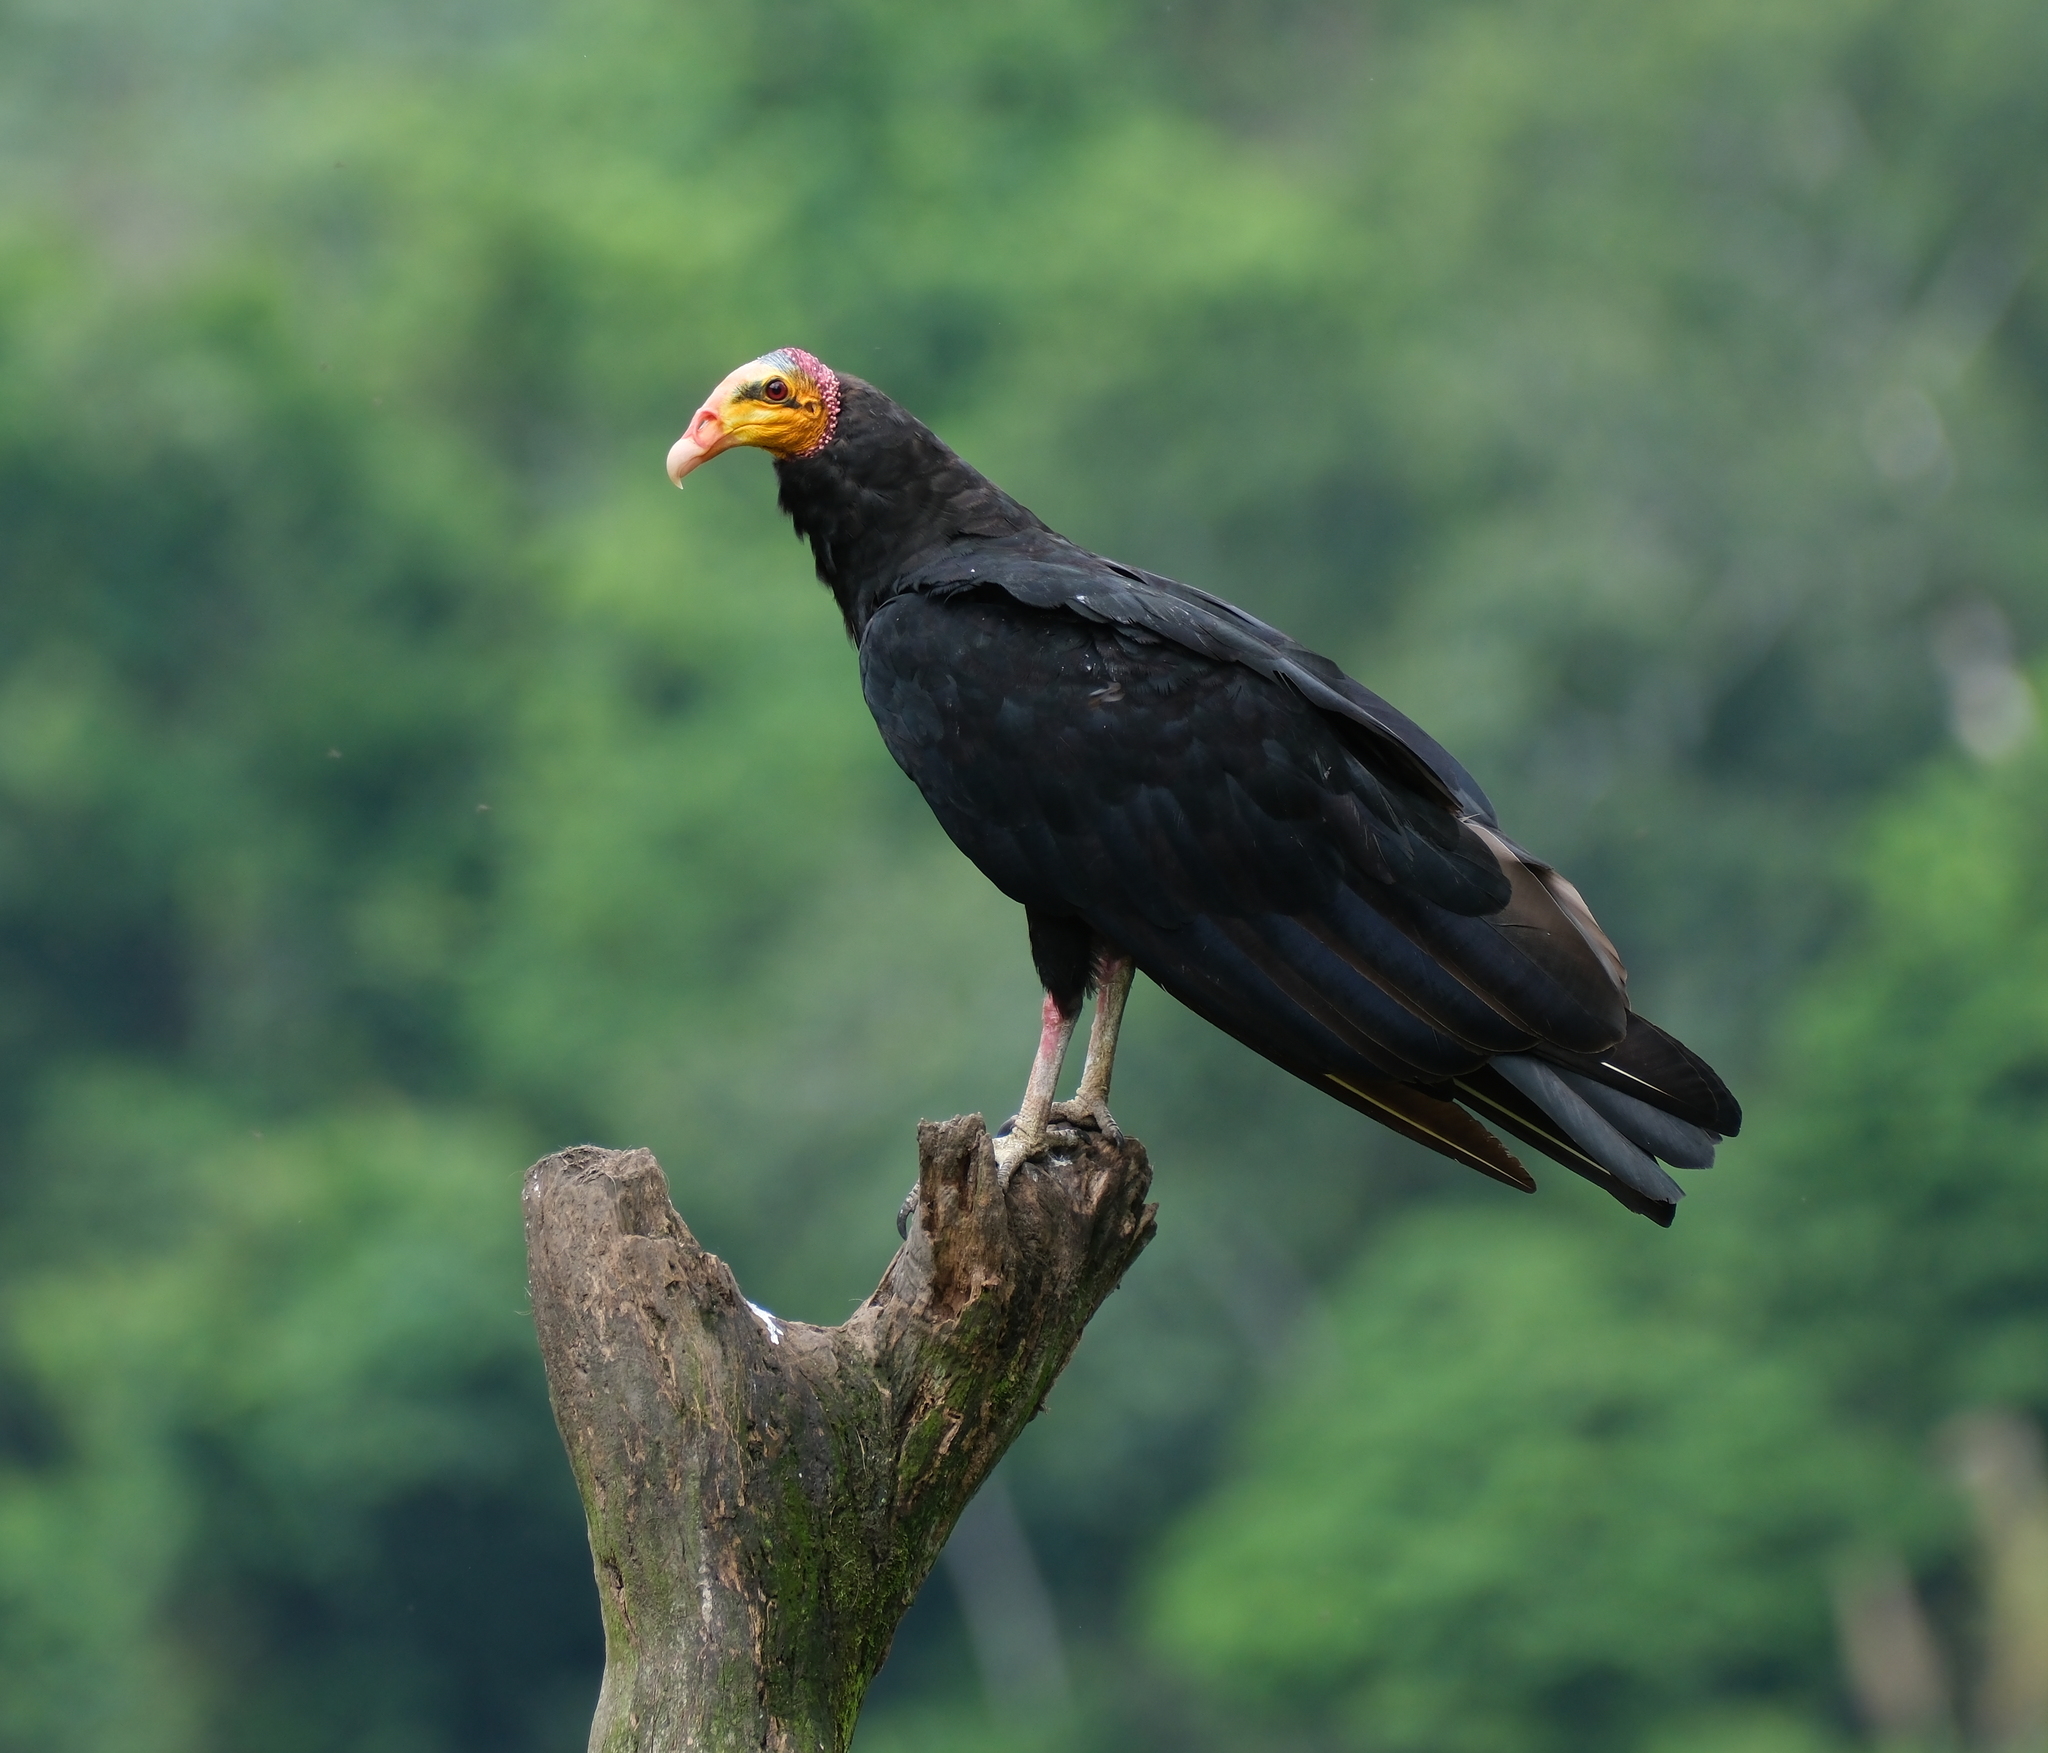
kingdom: Animalia
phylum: Chordata
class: Aves
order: Accipitriformes
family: Cathartidae
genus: Cathartes
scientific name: Cathartes melambrotus
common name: Greater yellow-headed vulture
